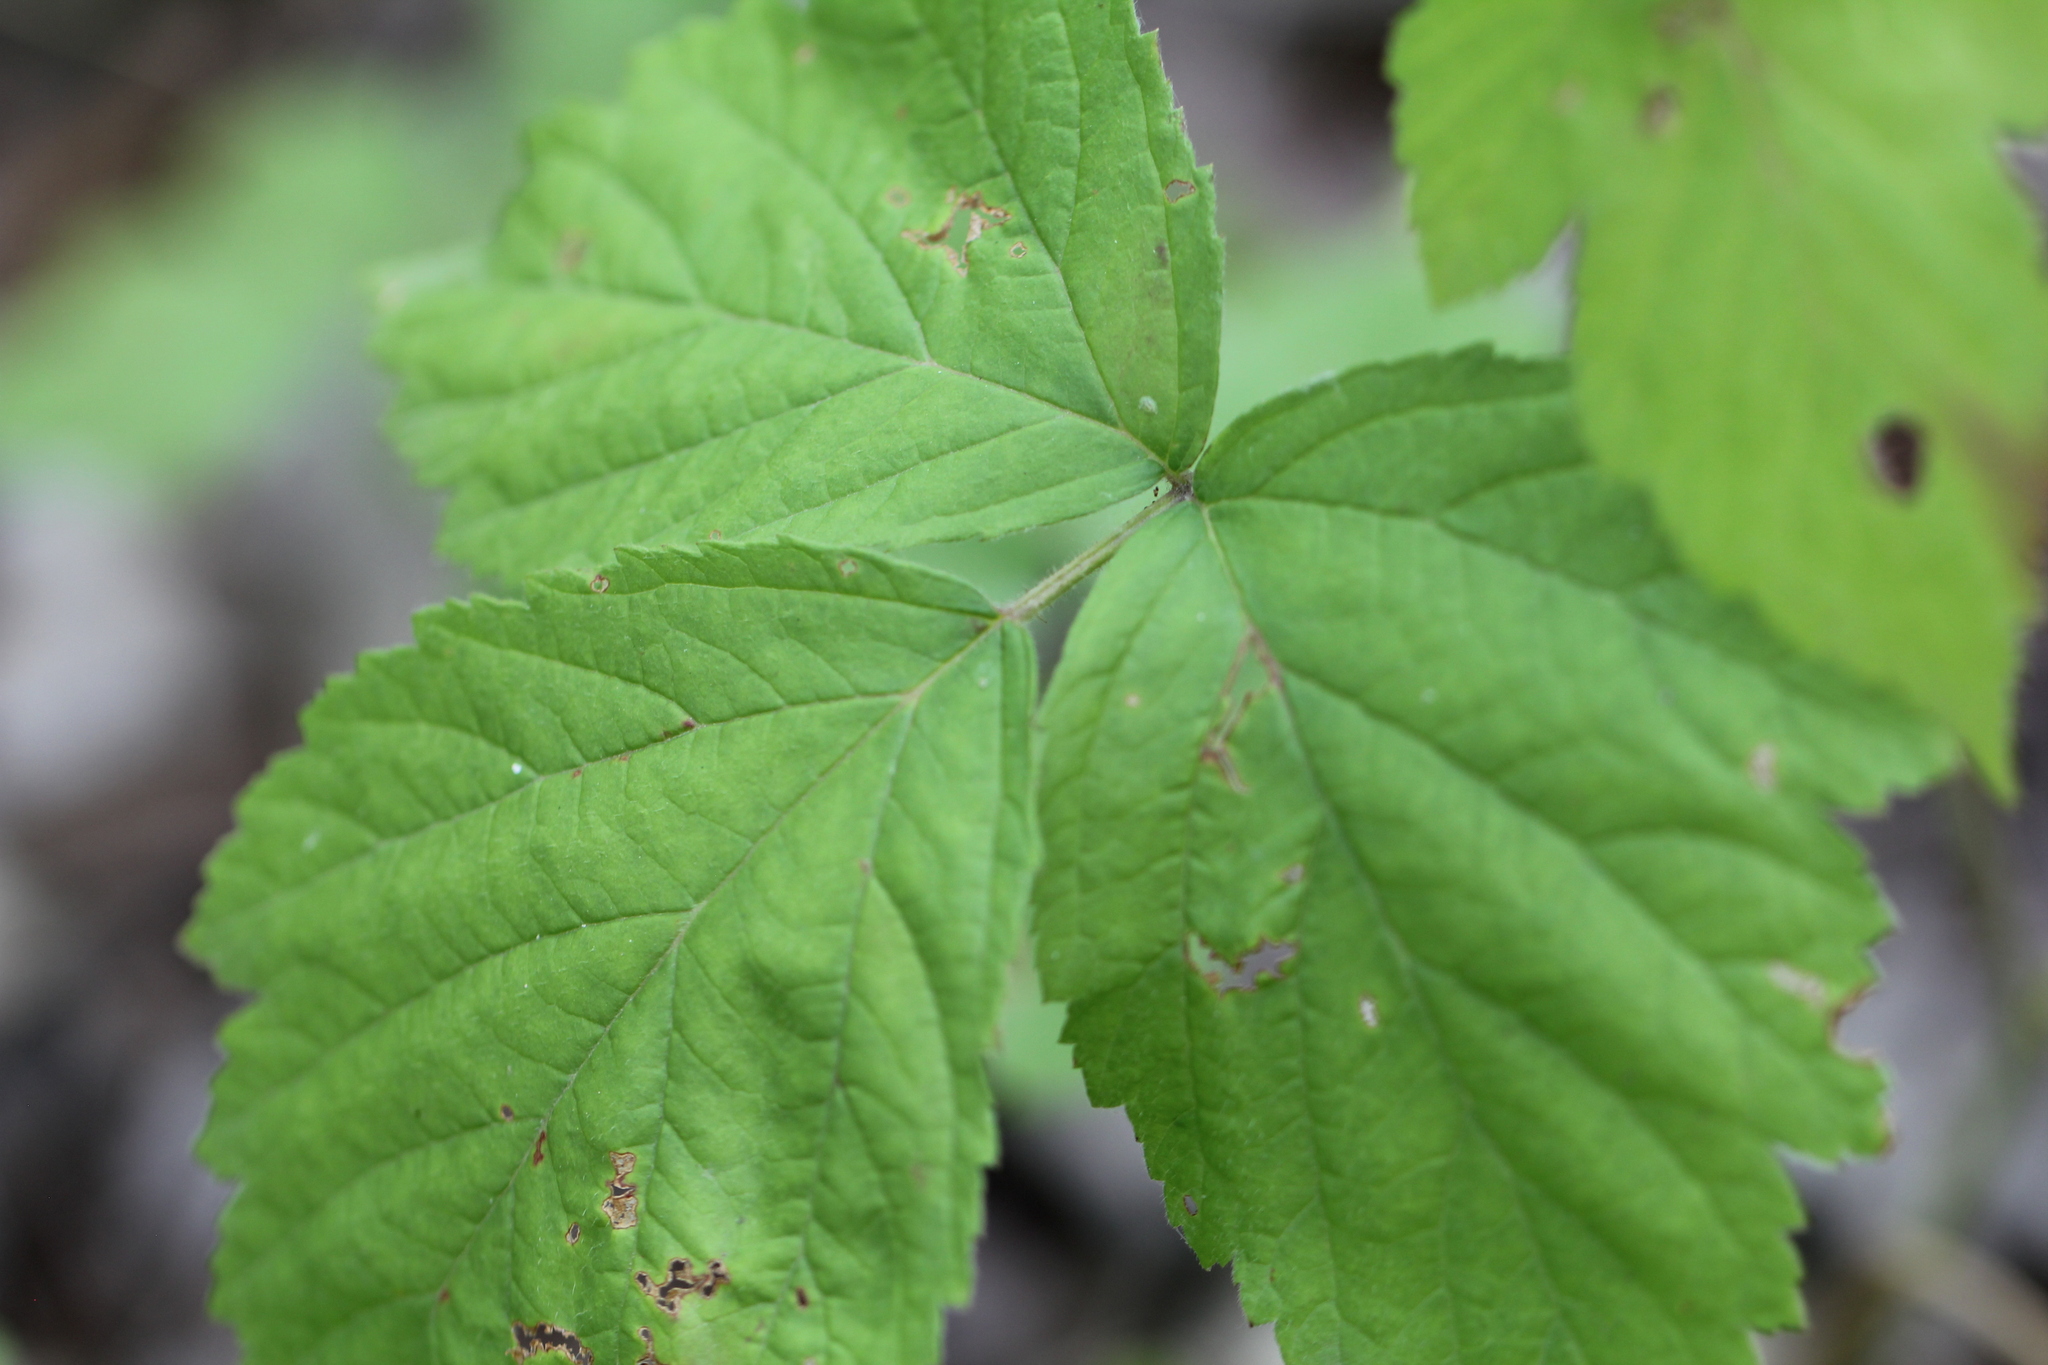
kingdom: Plantae
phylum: Tracheophyta
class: Magnoliopsida
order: Rosales
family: Rosaceae
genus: Rubus
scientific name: Rubus caesius
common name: Dewberry
